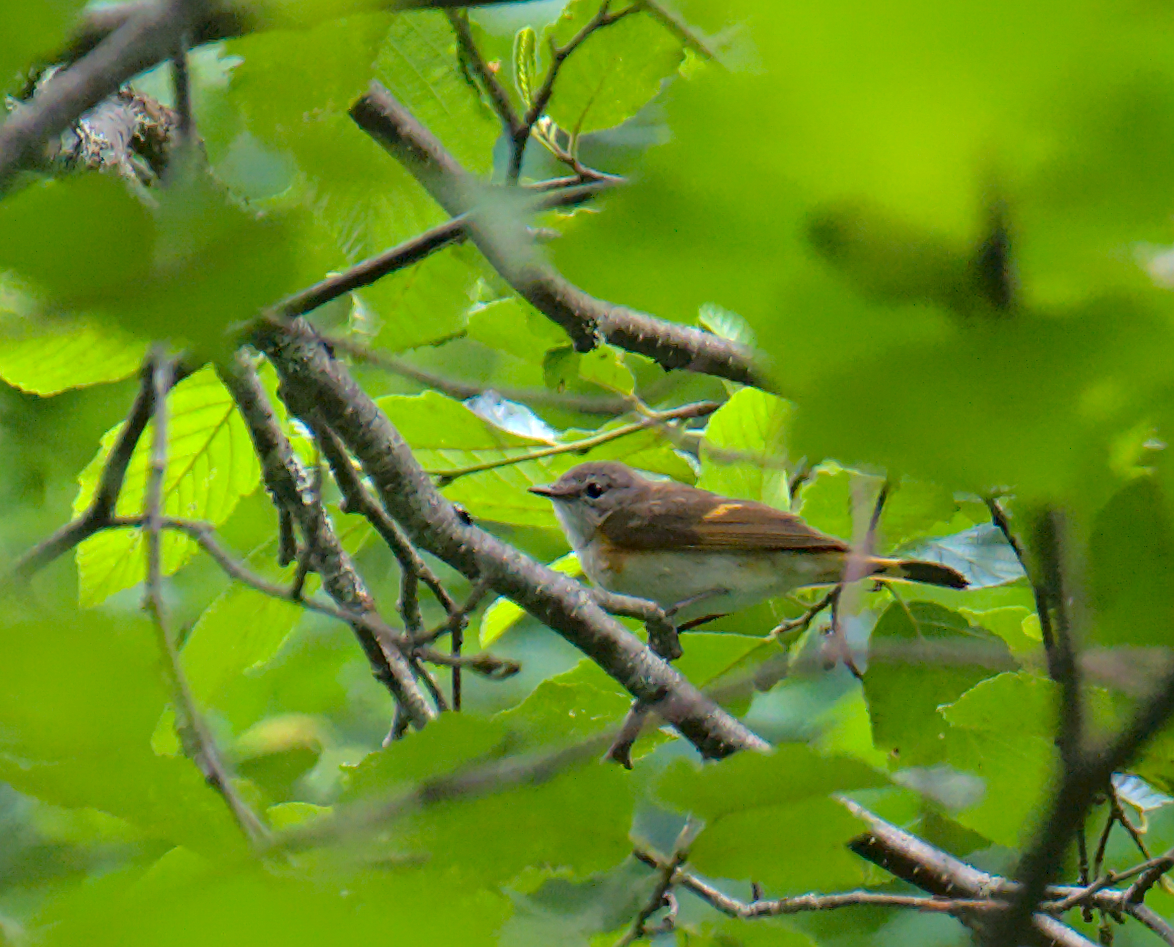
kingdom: Animalia
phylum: Chordata
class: Aves
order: Passeriformes
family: Parulidae
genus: Setophaga
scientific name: Setophaga ruticilla
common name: American redstart
